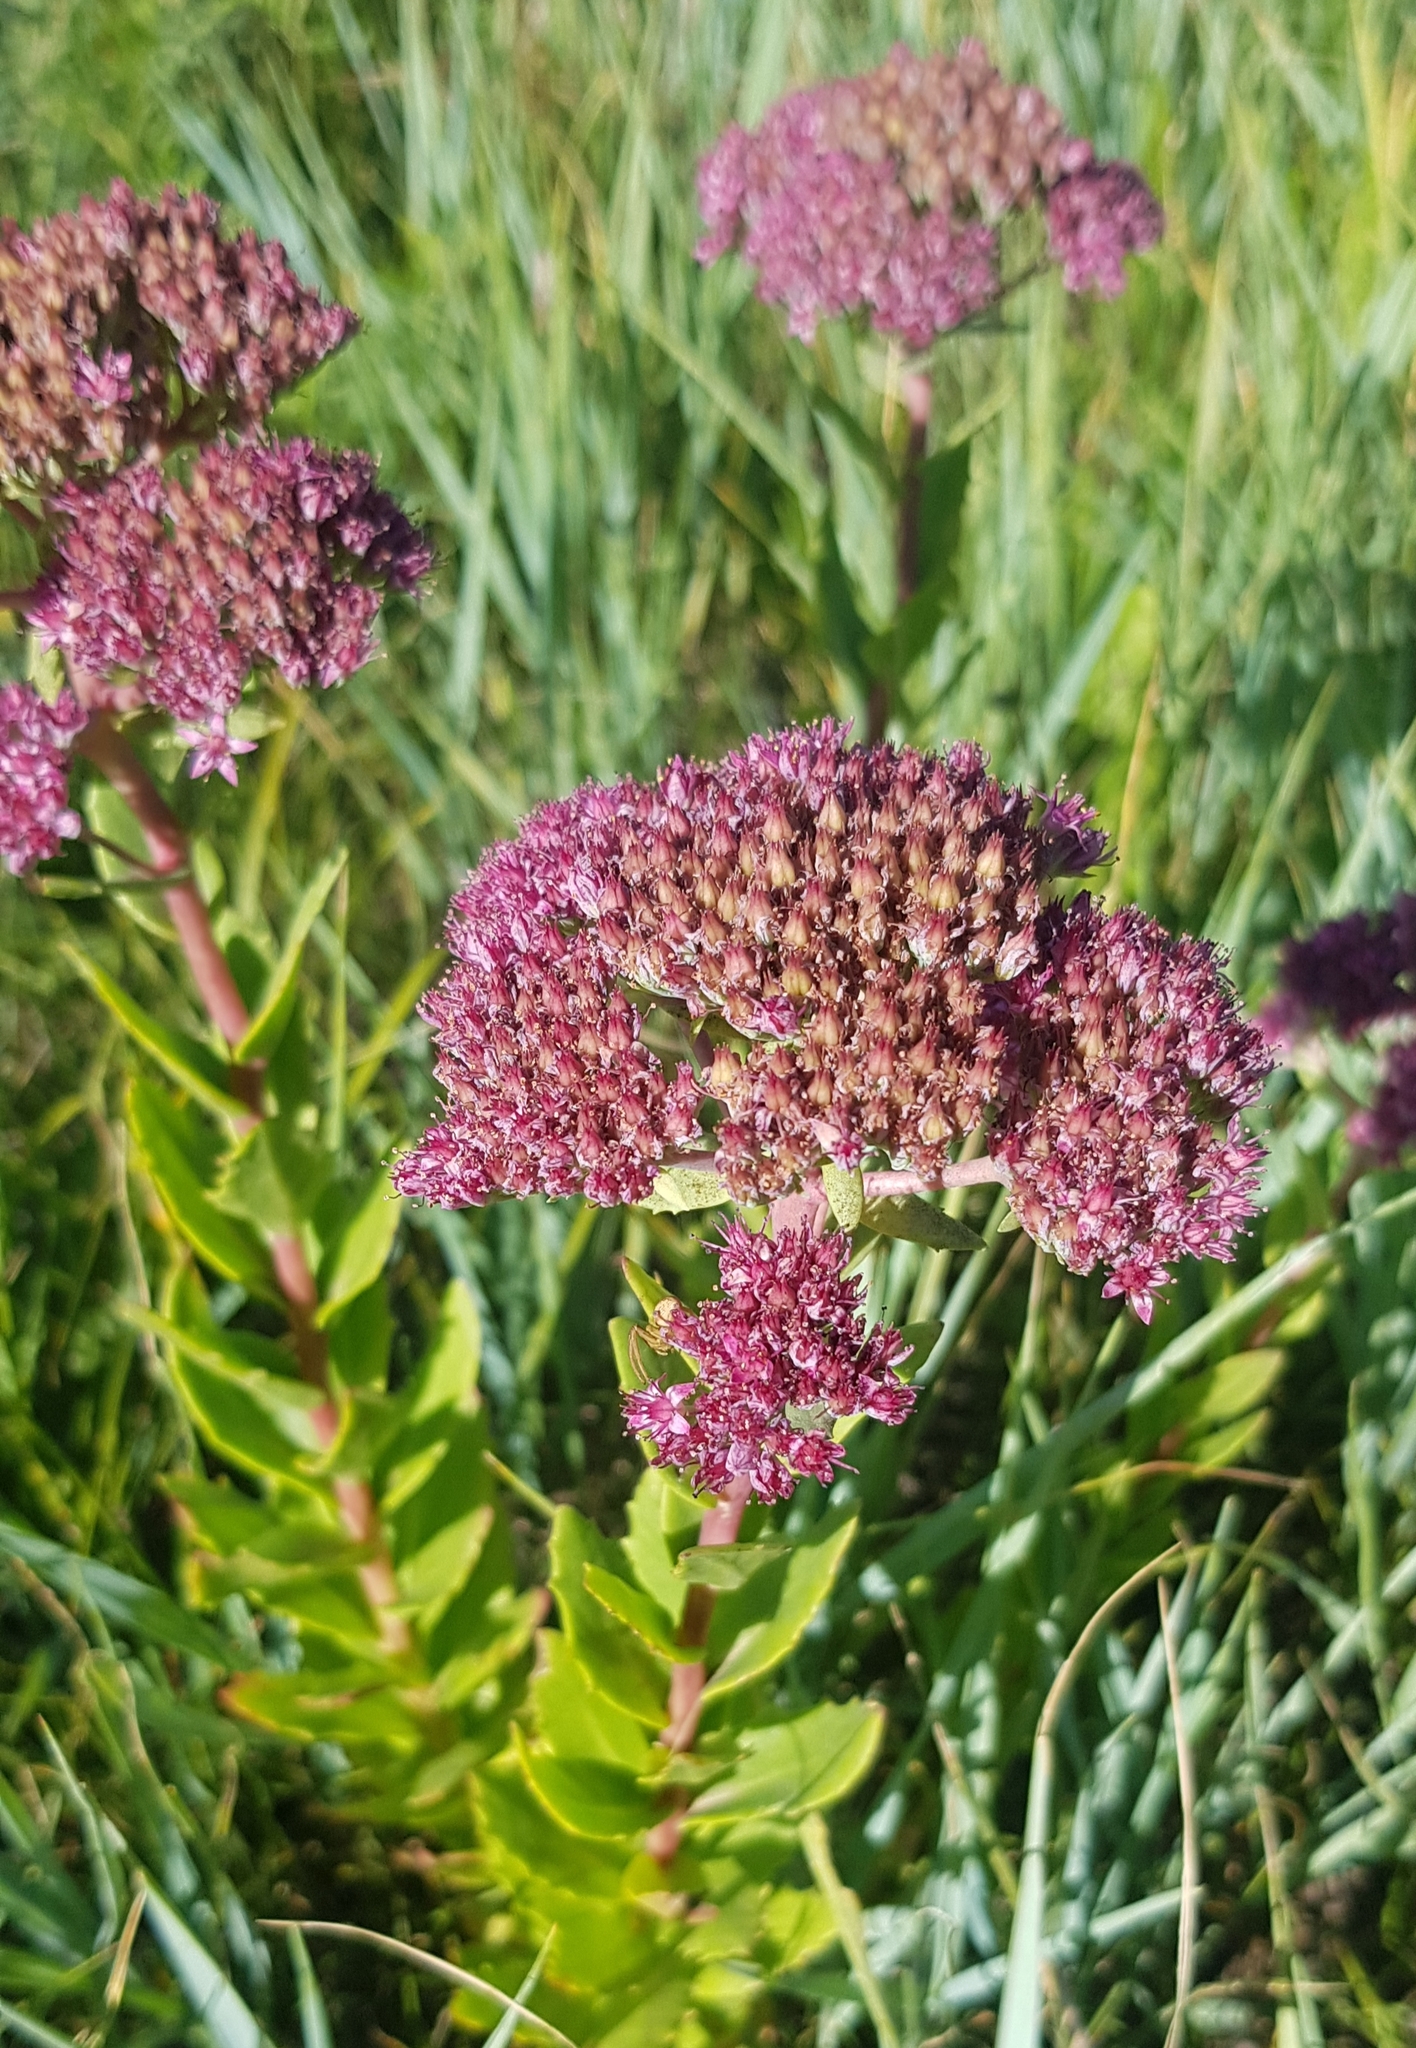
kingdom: Plantae
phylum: Tracheophyta
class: Magnoliopsida
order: Saxifragales
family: Crassulaceae
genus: Hylotelephium
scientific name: Hylotelephium telephium
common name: Live-forever
